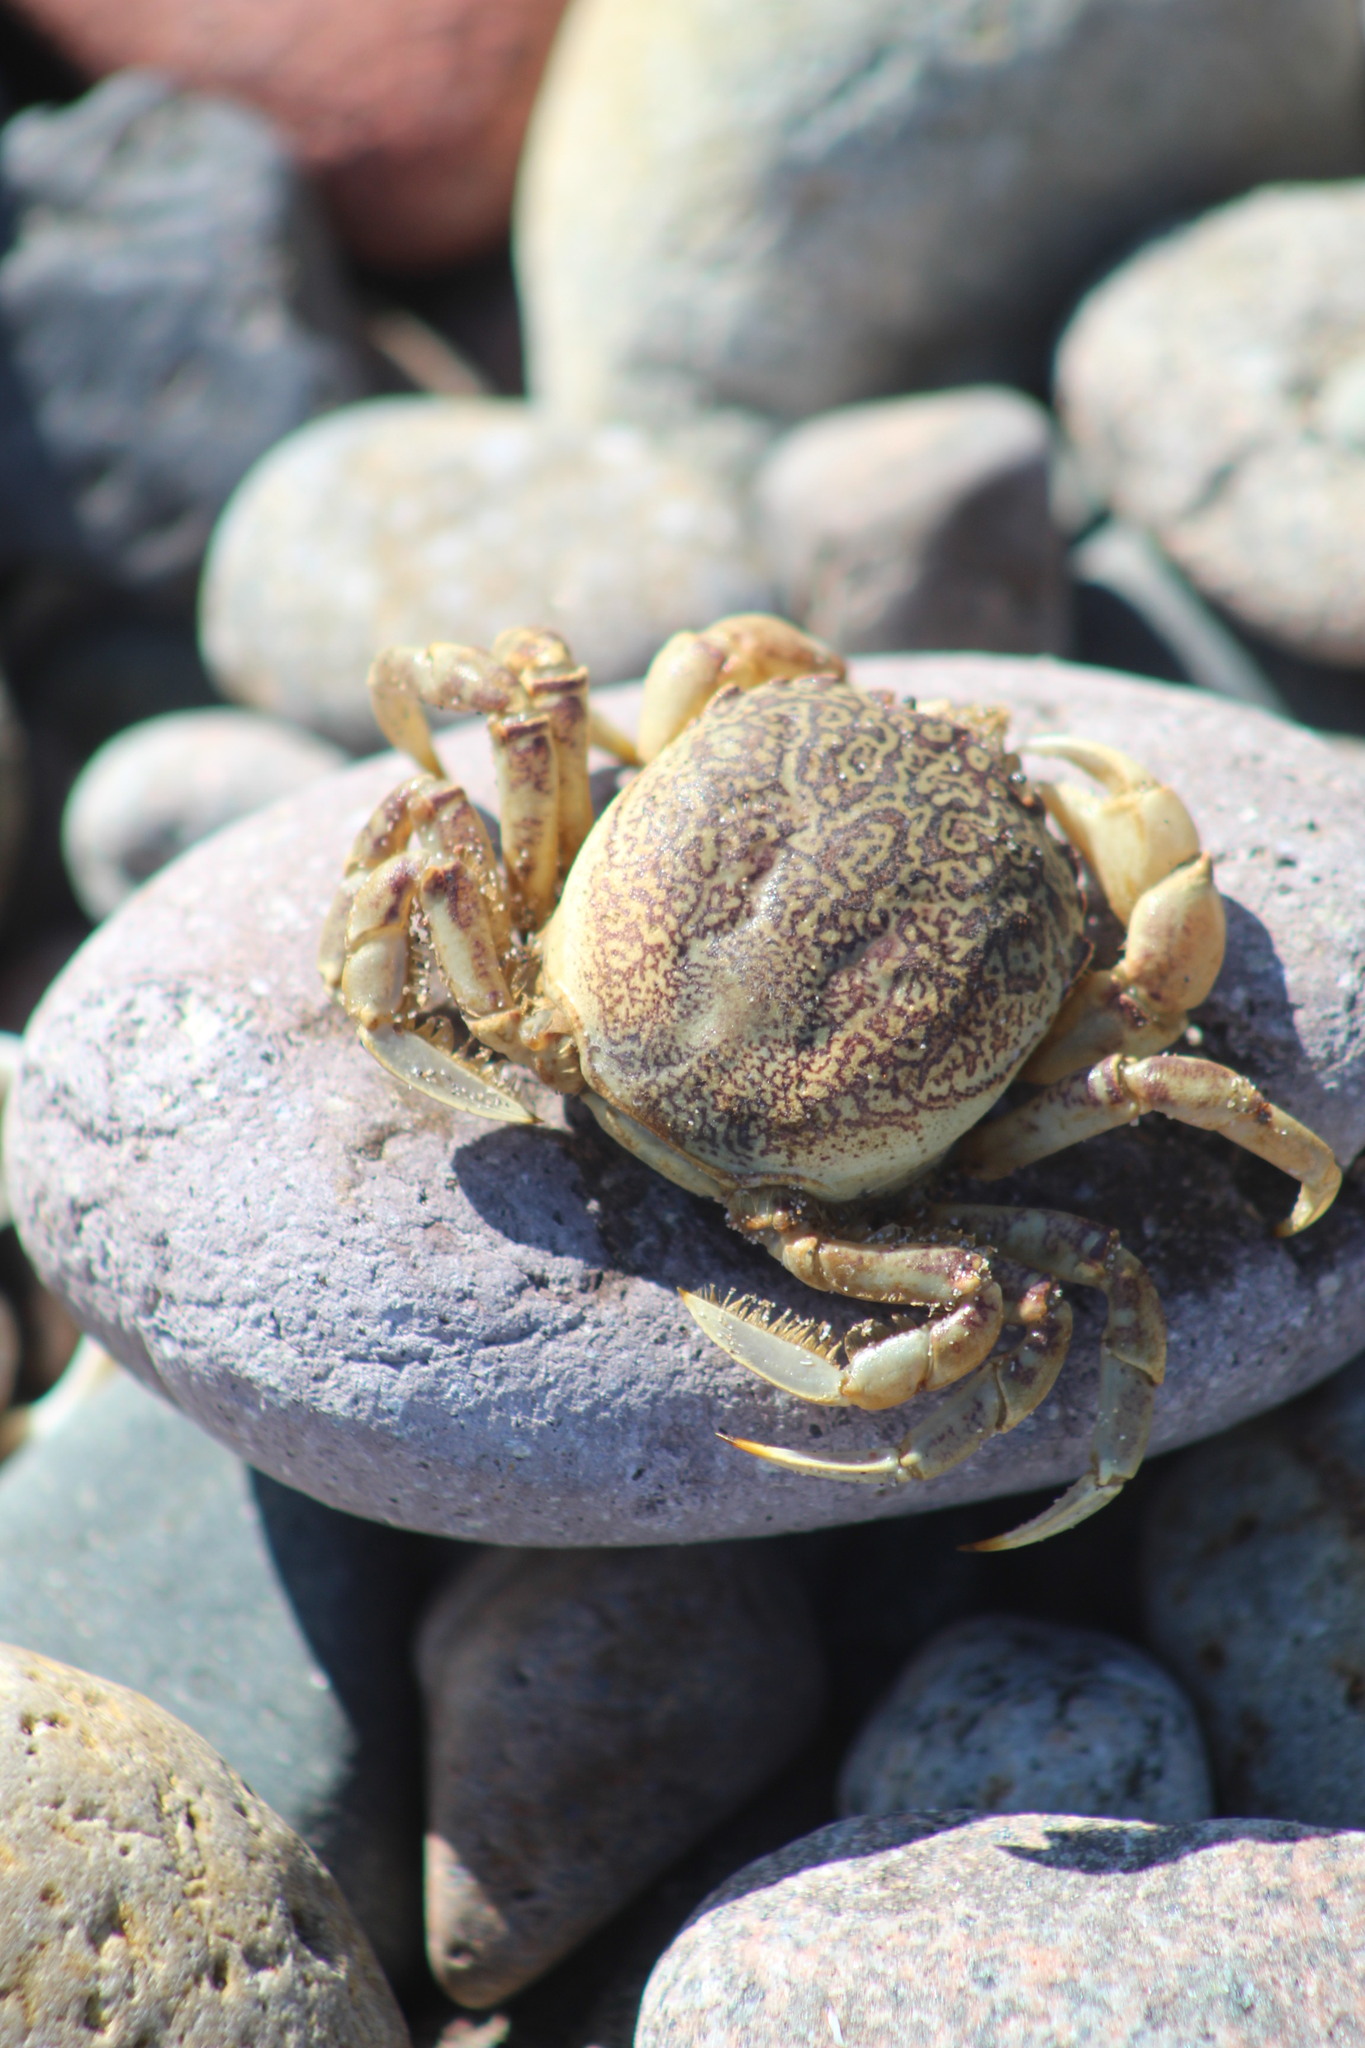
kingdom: Animalia
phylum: Arthropoda
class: Malacostraca
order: Decapoda
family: Belliidae
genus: Bellia
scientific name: Bellia picta
